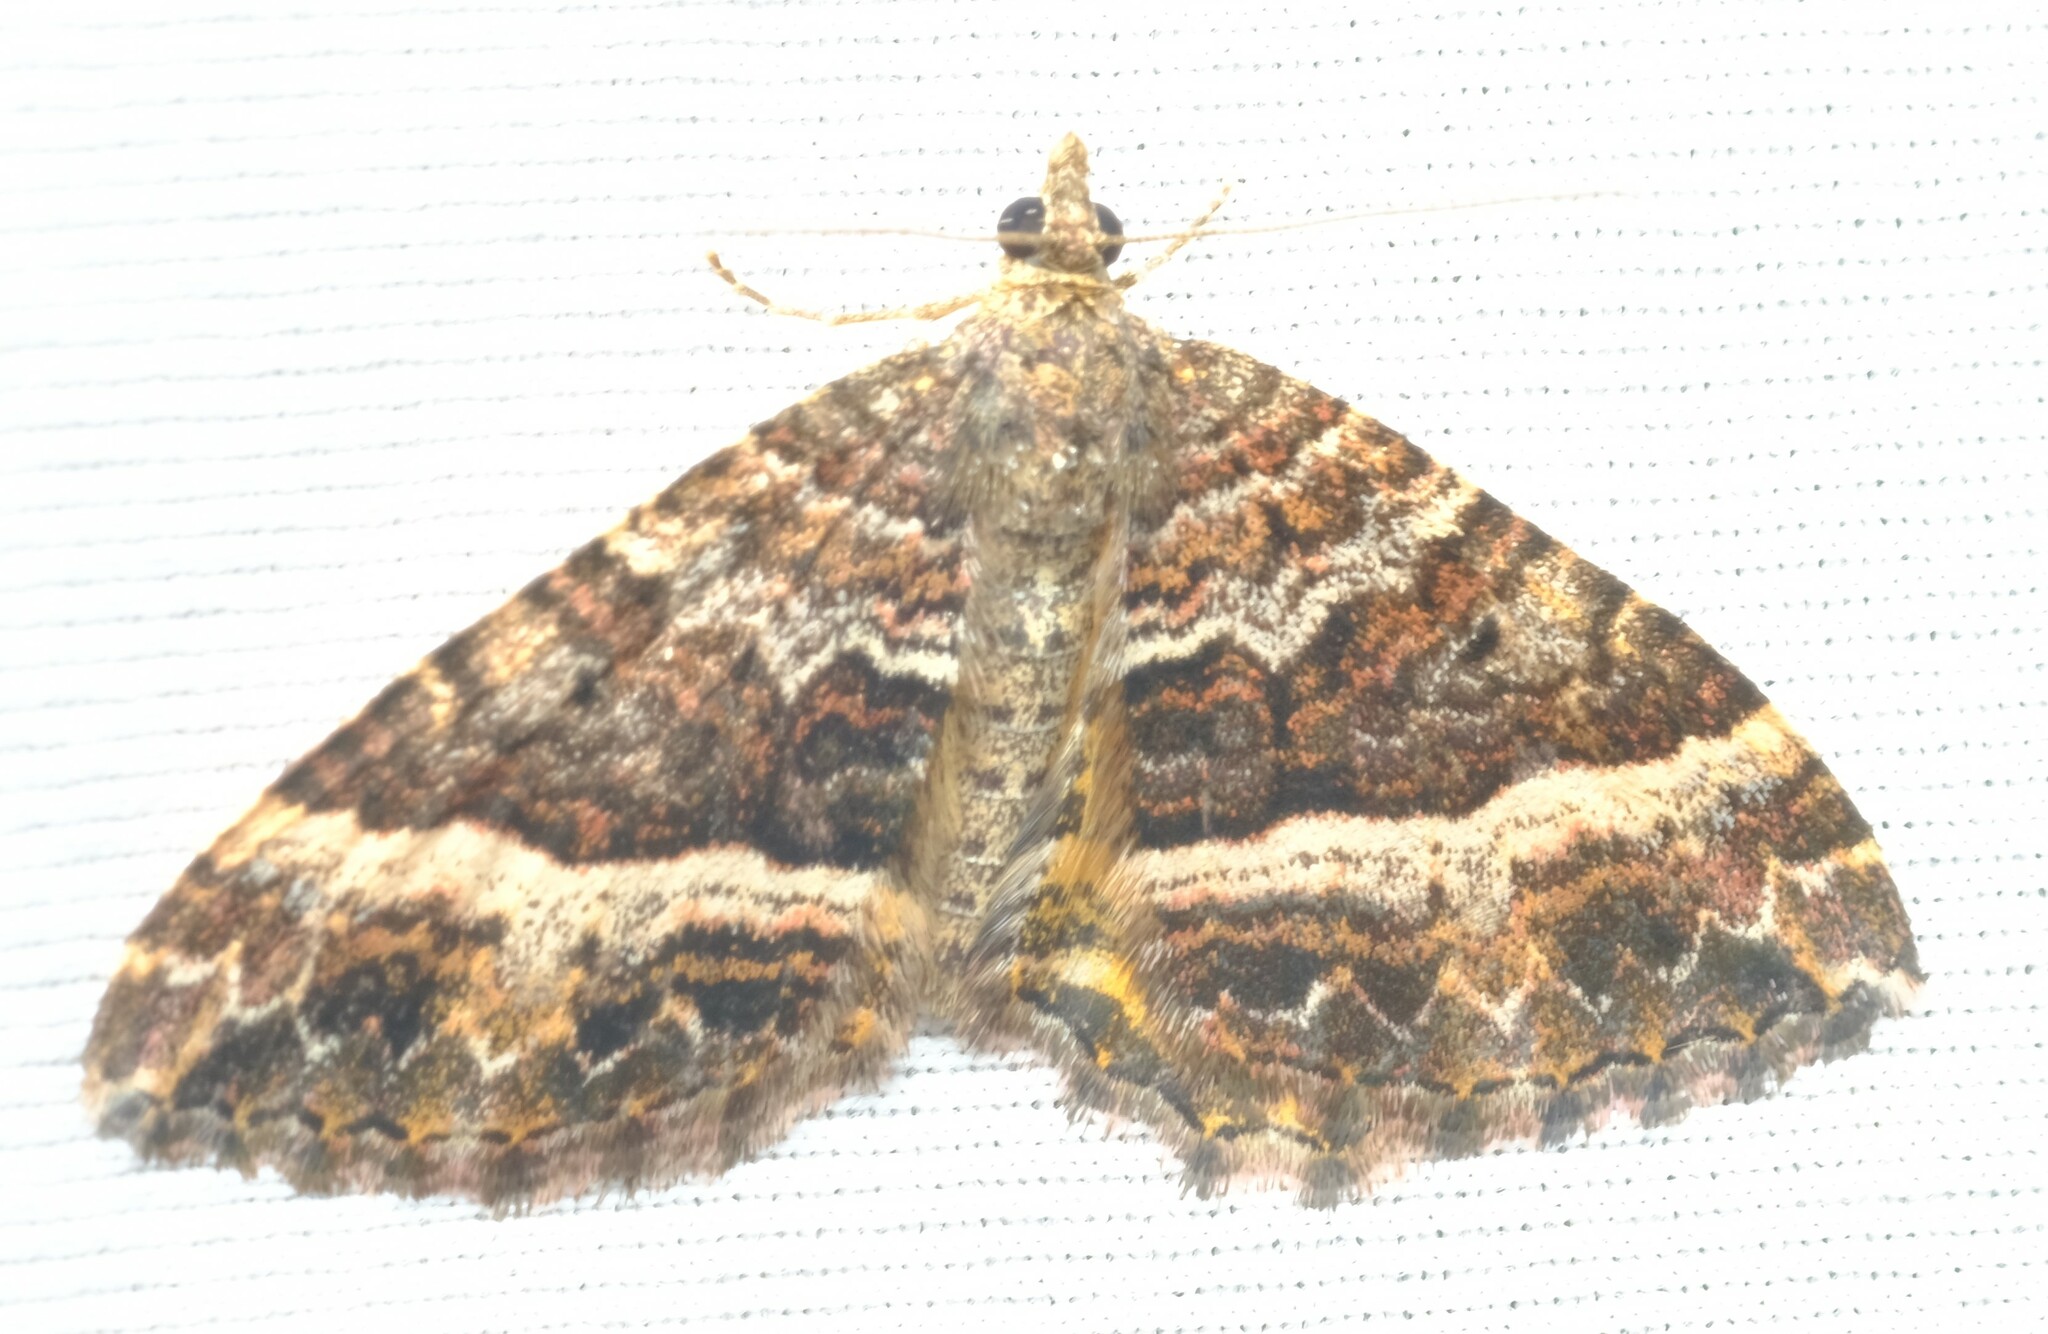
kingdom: Animalia
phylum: Arthropoda
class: Insecta
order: Lepidoptera
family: Geometridae
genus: Chrysolarentia
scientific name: Chrysolarentia vicissata
